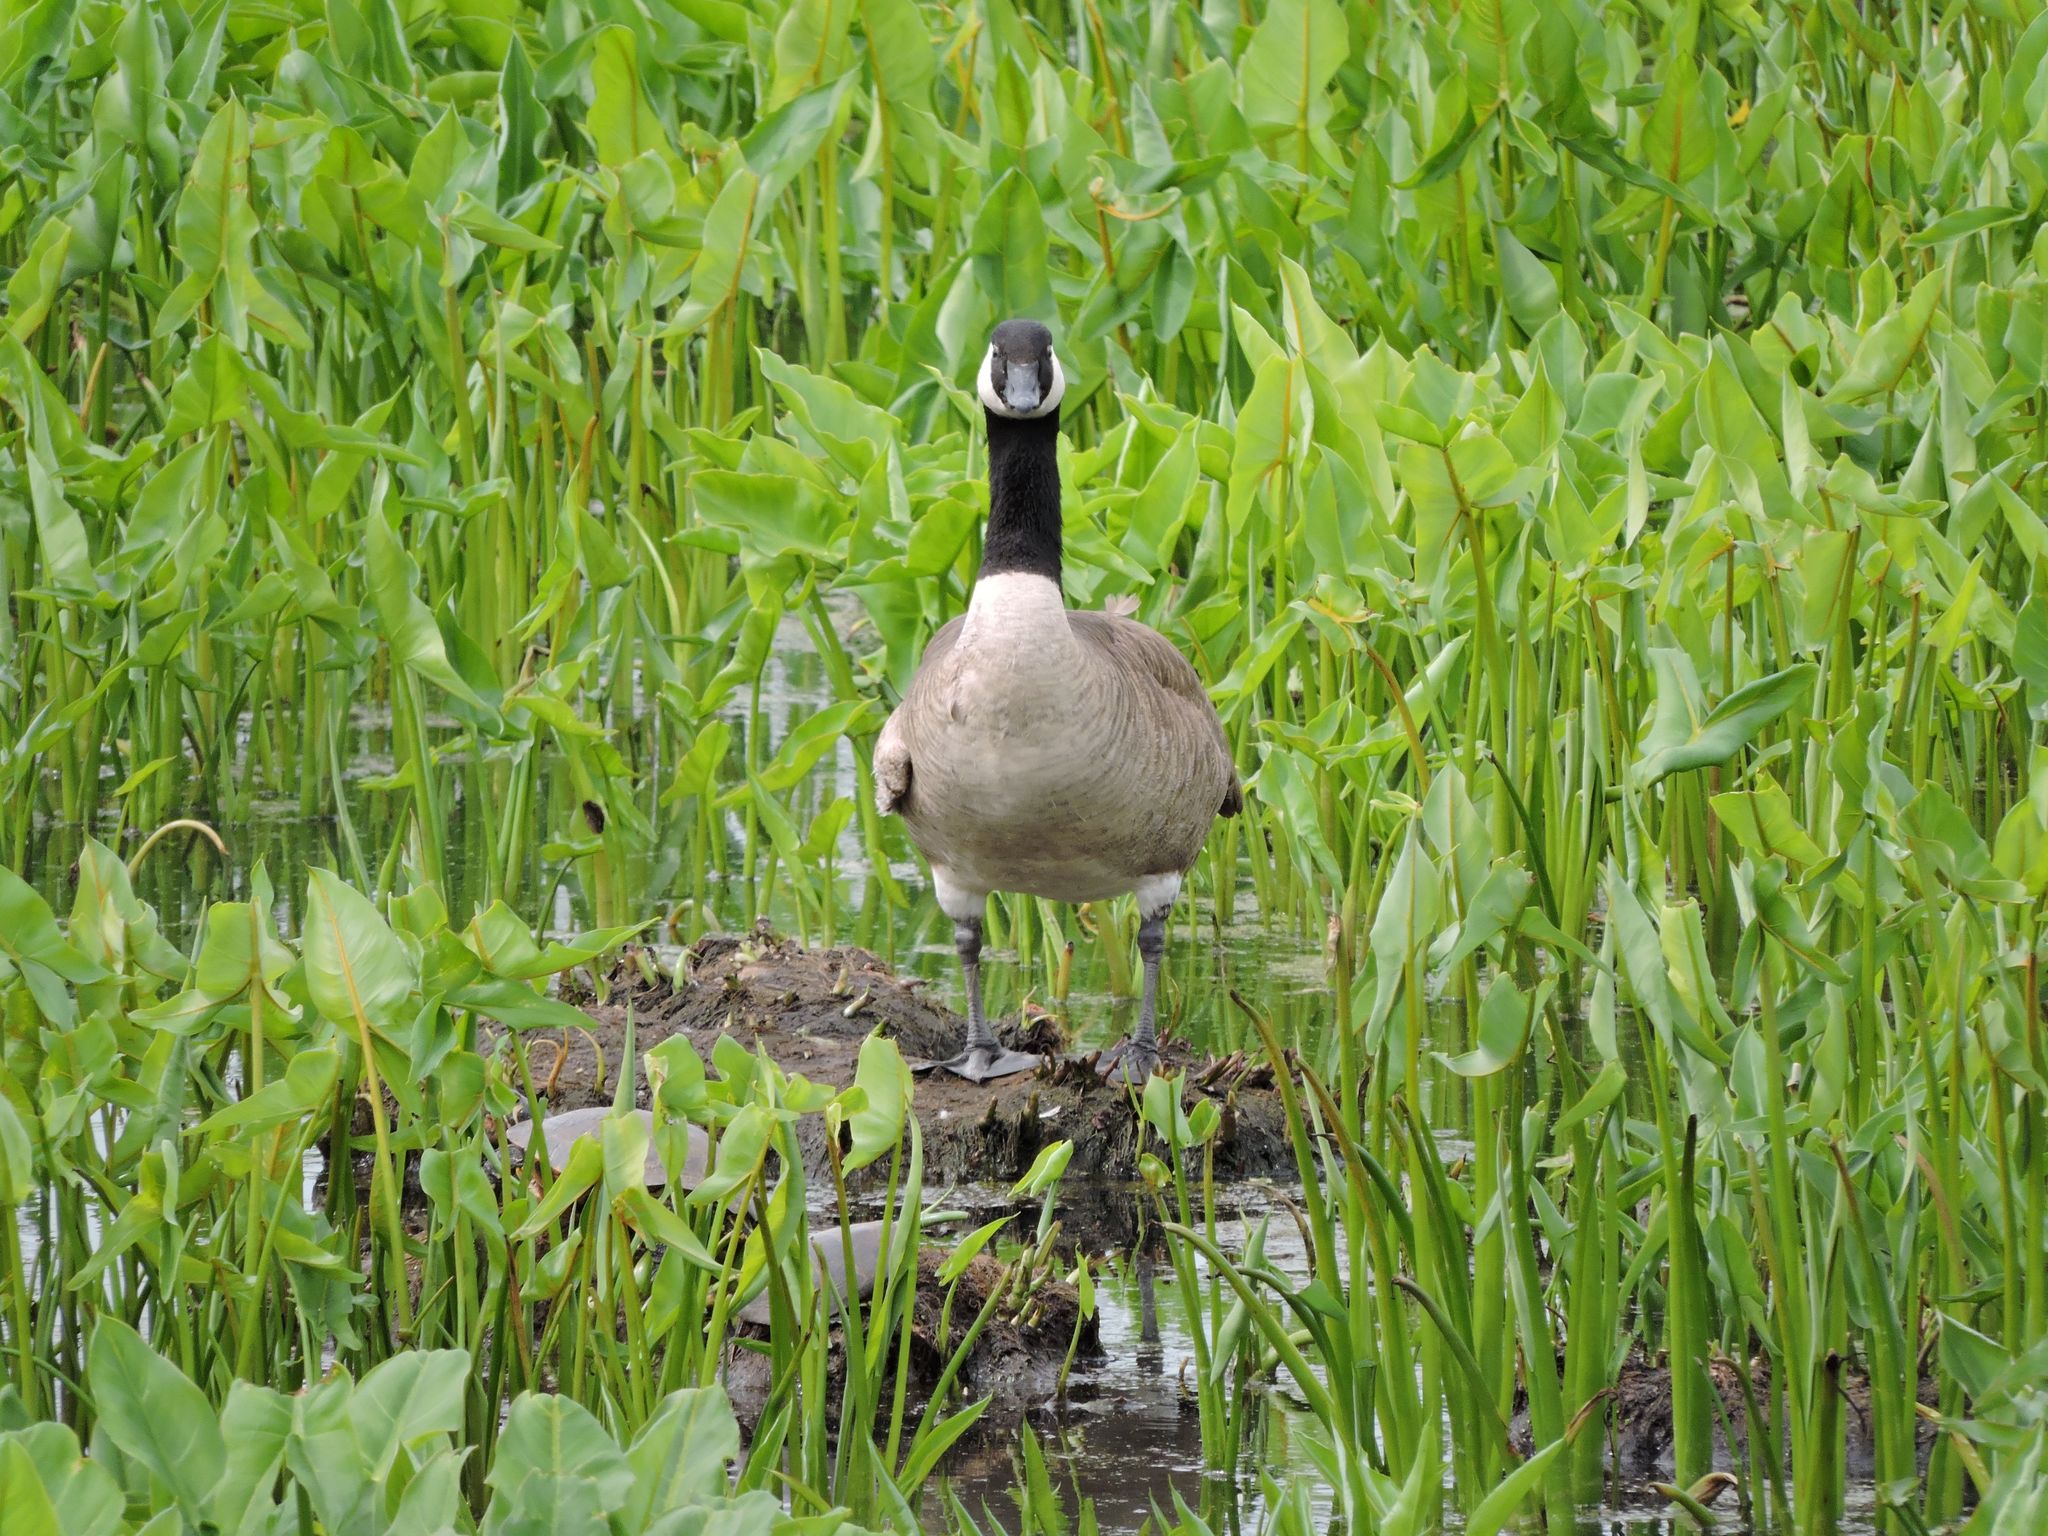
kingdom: Animalia
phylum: Chordata
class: Aves
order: Anseriformes
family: Anatidae
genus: Branta
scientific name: Branta canadensis
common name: Canada goose
